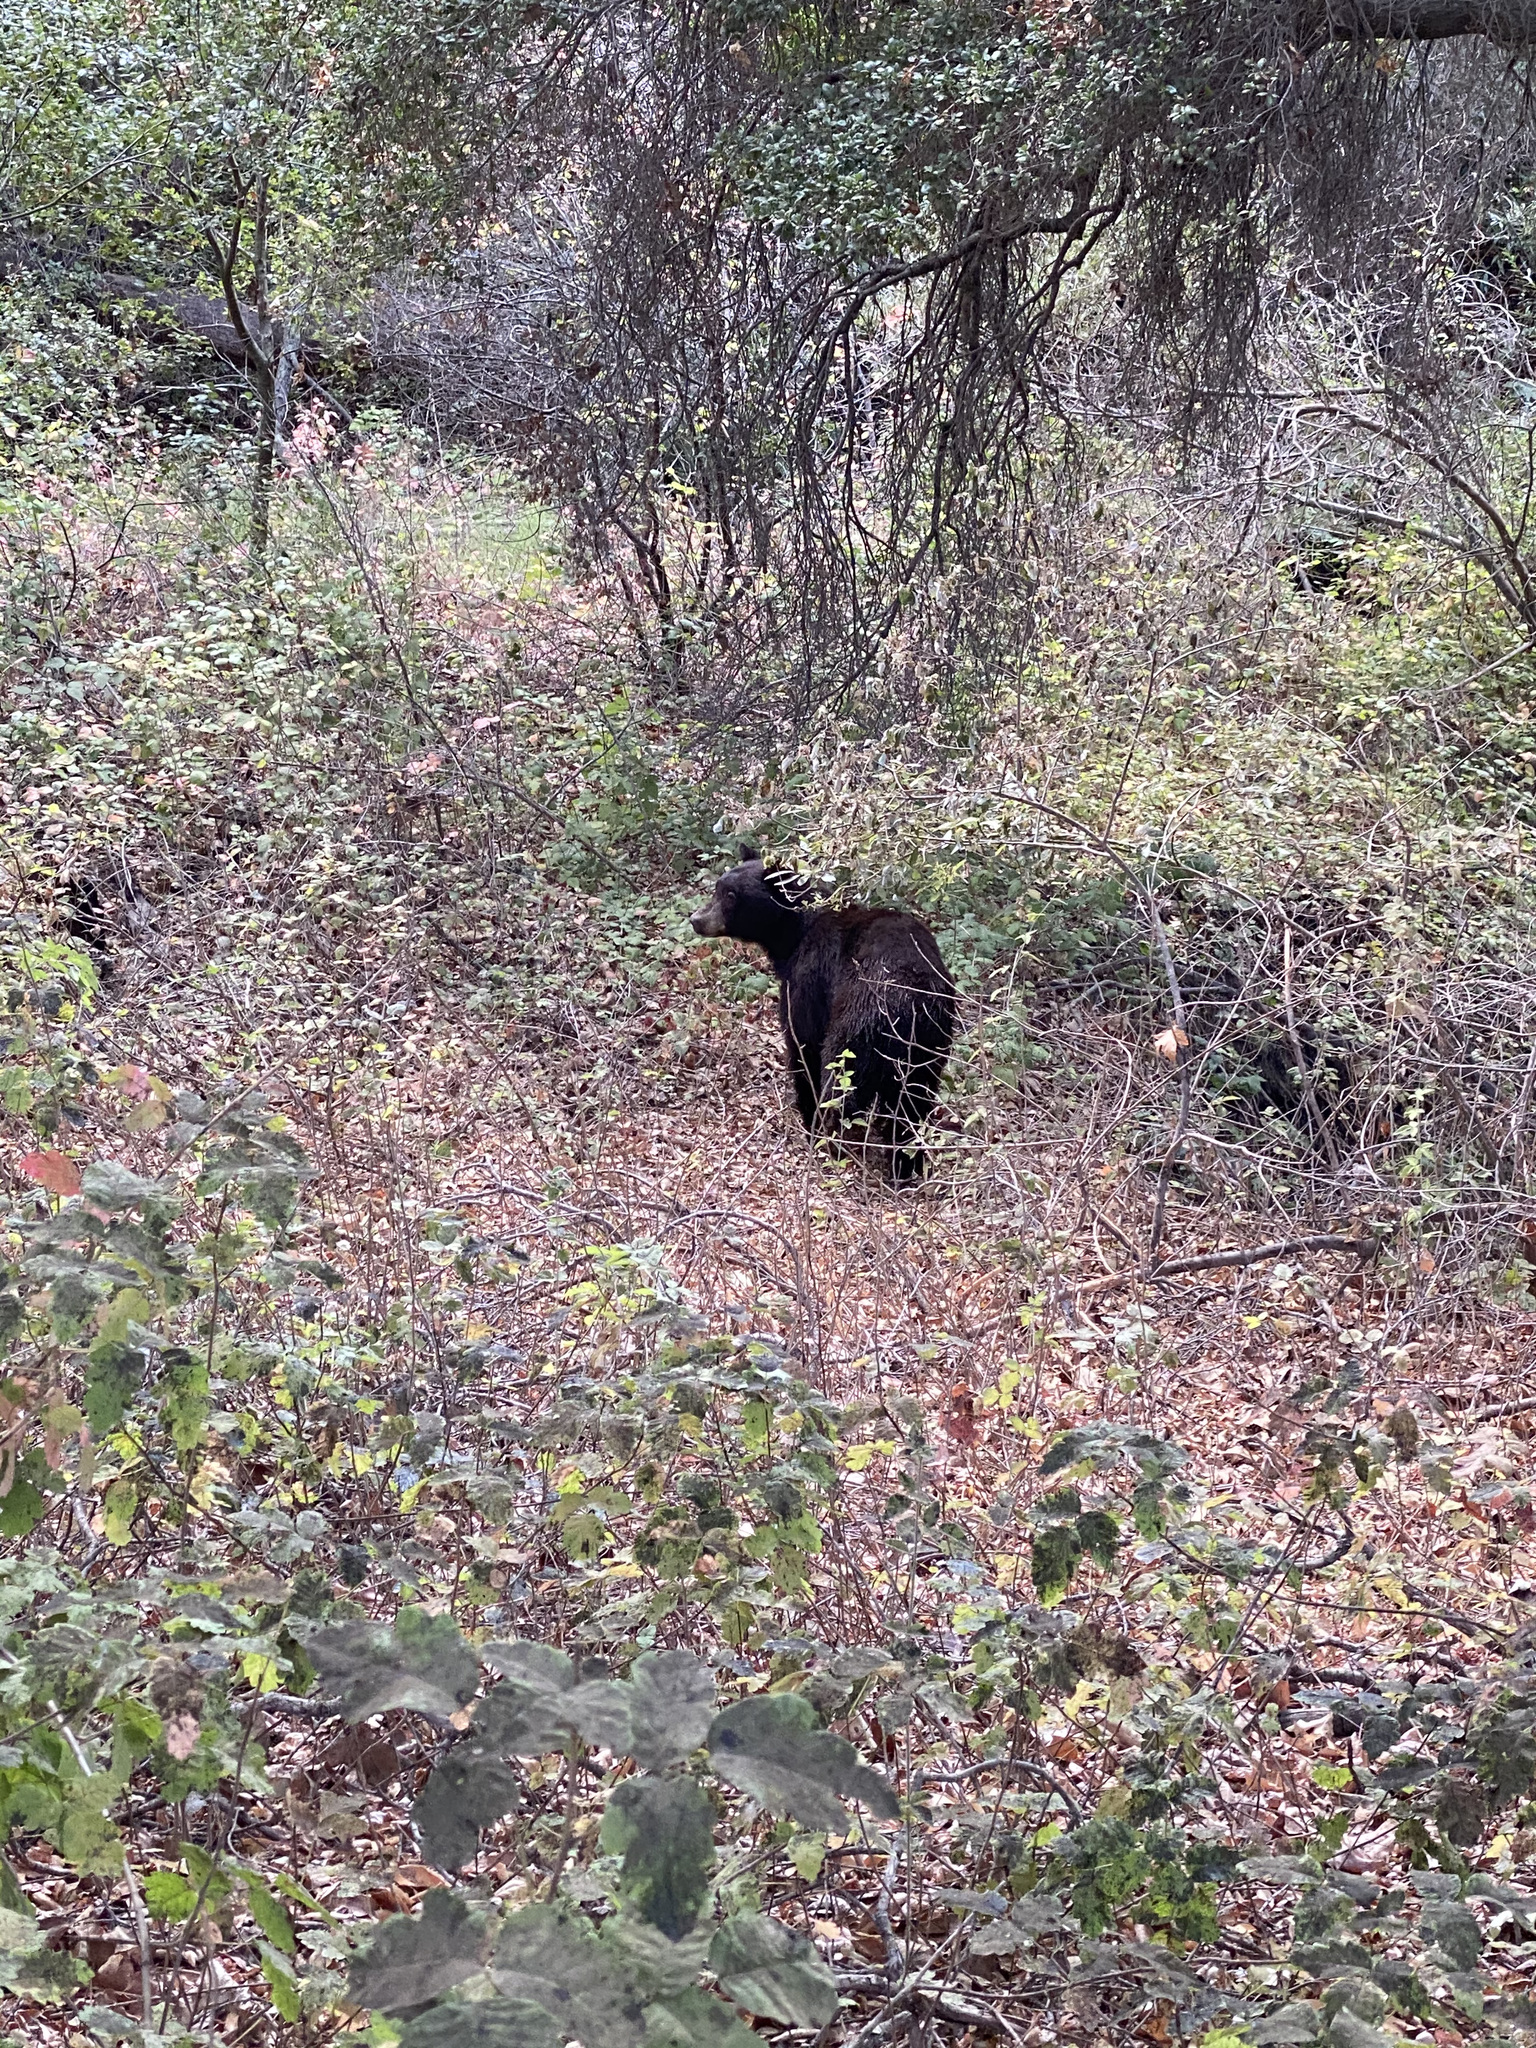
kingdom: Animalia
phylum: Chordata
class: Mammalia
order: Carnivora
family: Ursidae
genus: Ursus
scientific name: Ursus americanus
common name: American black bear
